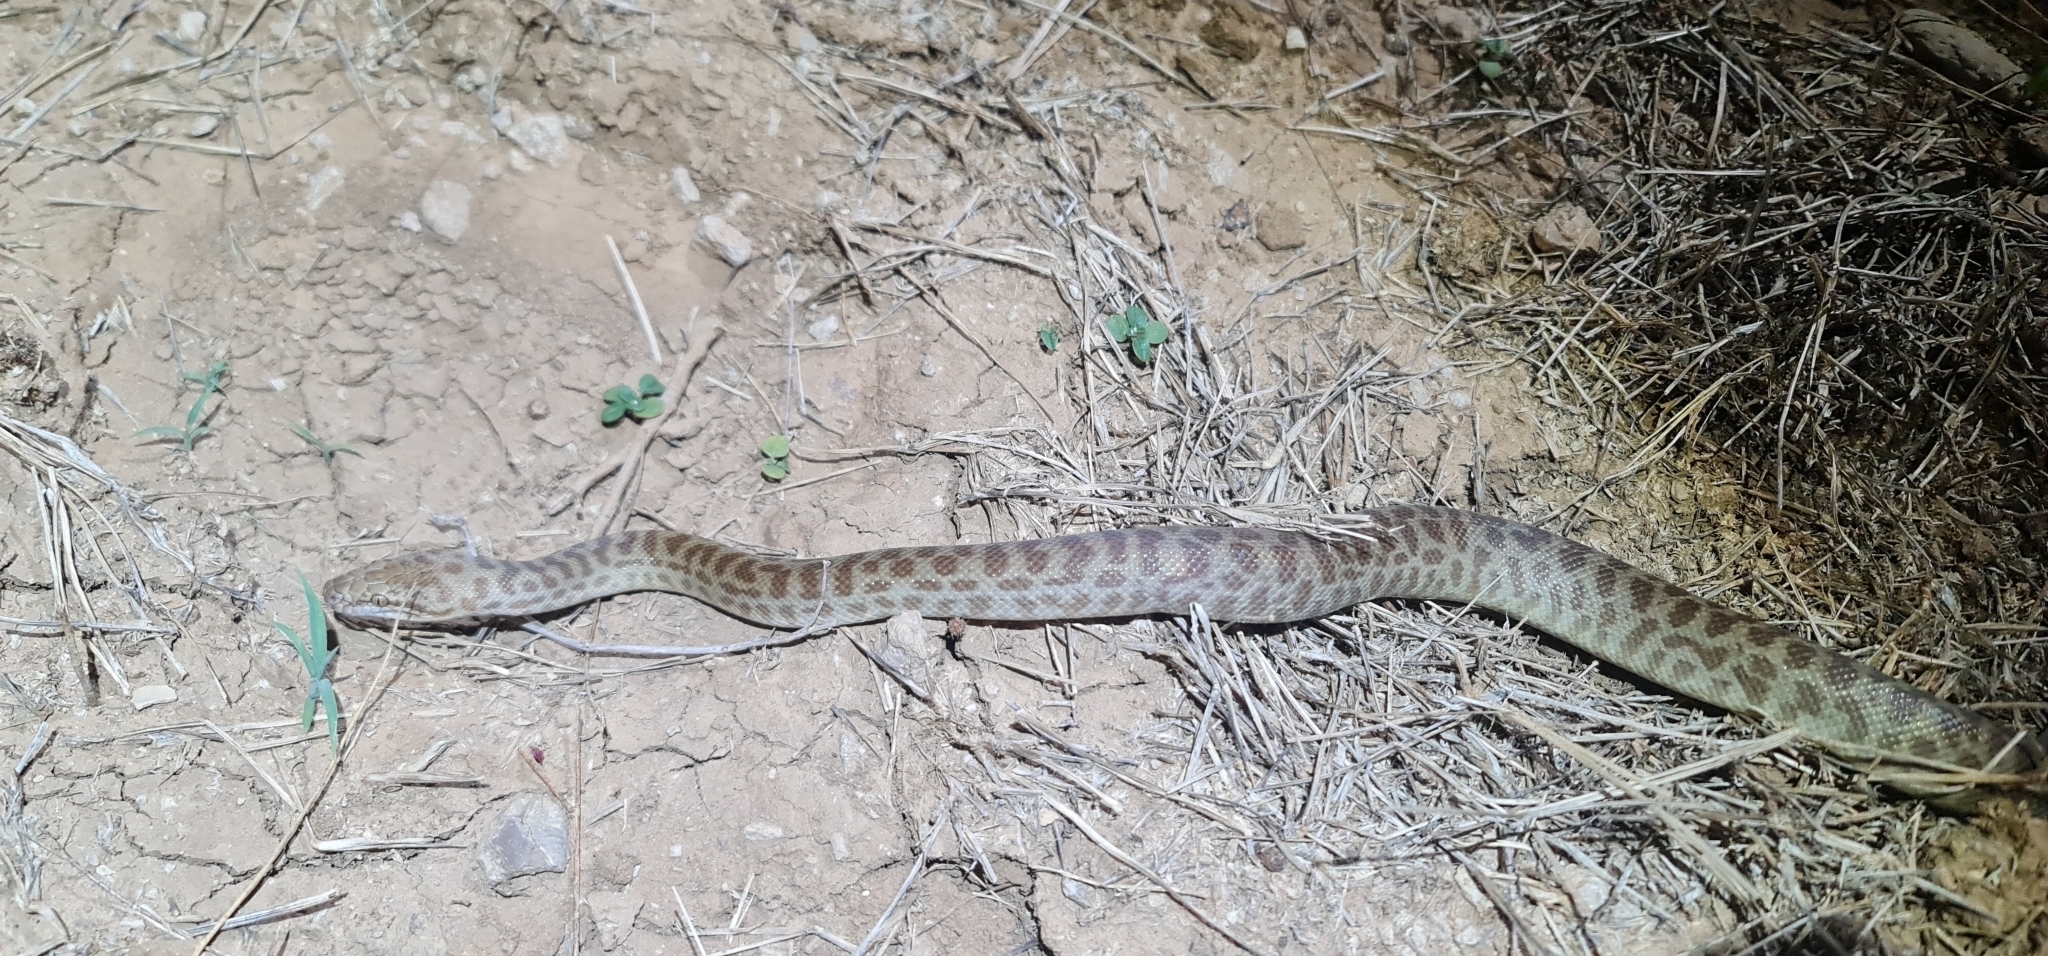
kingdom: Animalia
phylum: Chordata
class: Squamata
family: Pythonidae
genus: Antaresia
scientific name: Antaresia childreni
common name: Children's python
